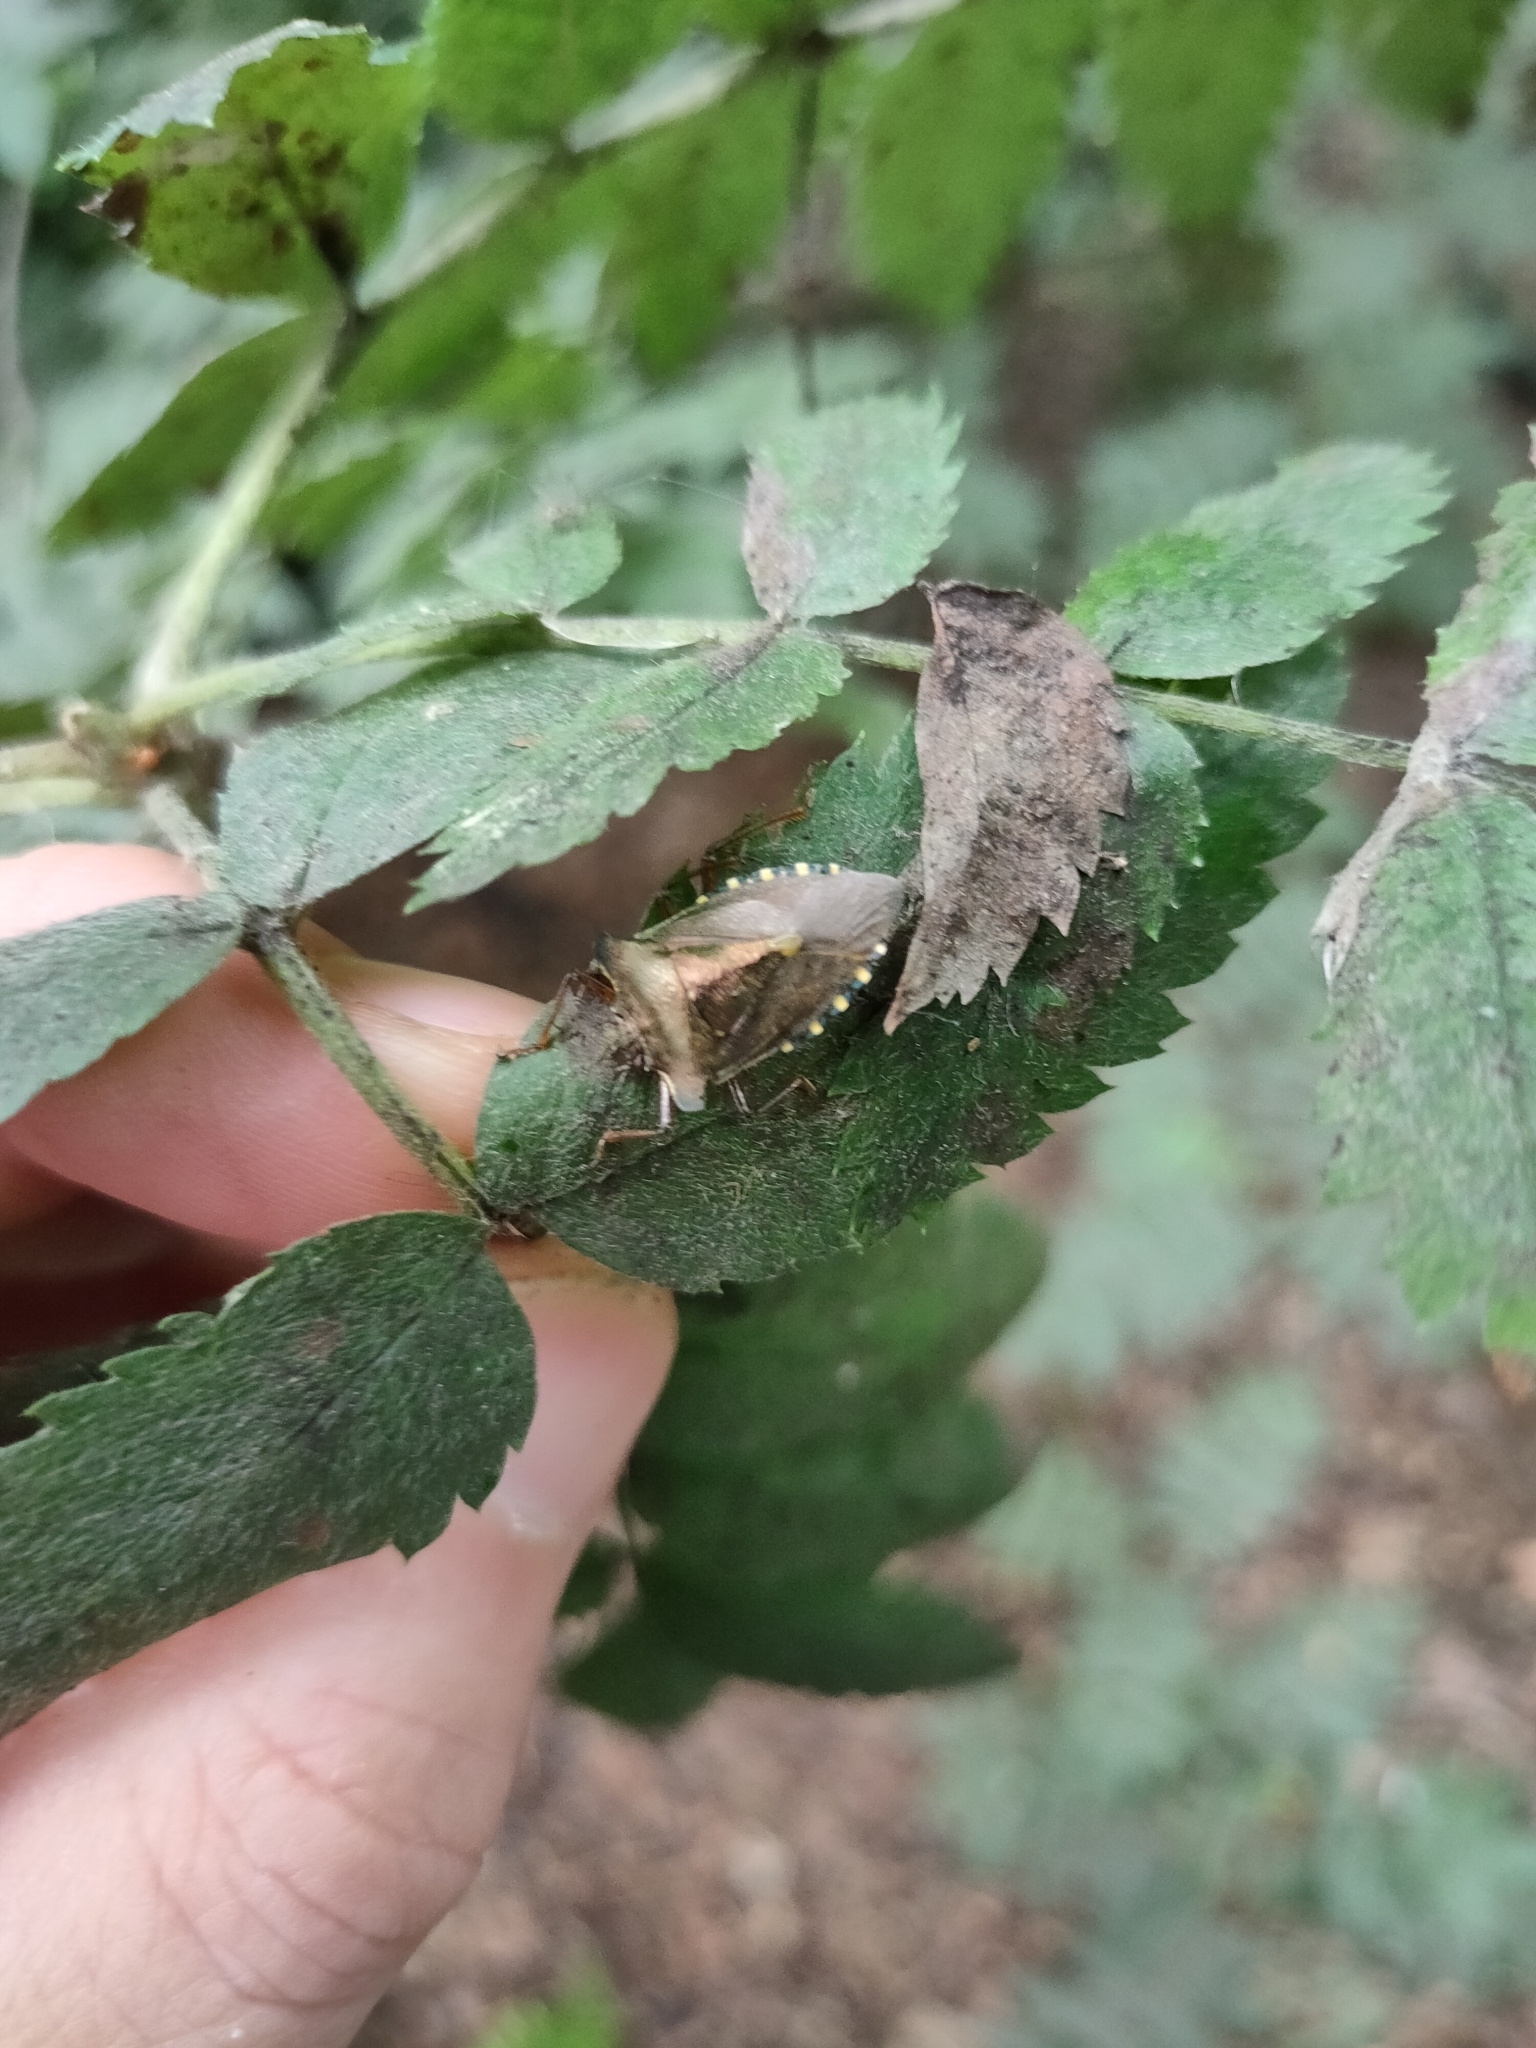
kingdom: Animalia
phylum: Arthropoda
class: Insecta
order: Hemiptera
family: Pentatomidae
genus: Pentatoma
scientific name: Pentatoma rufipes
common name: Forest bug
